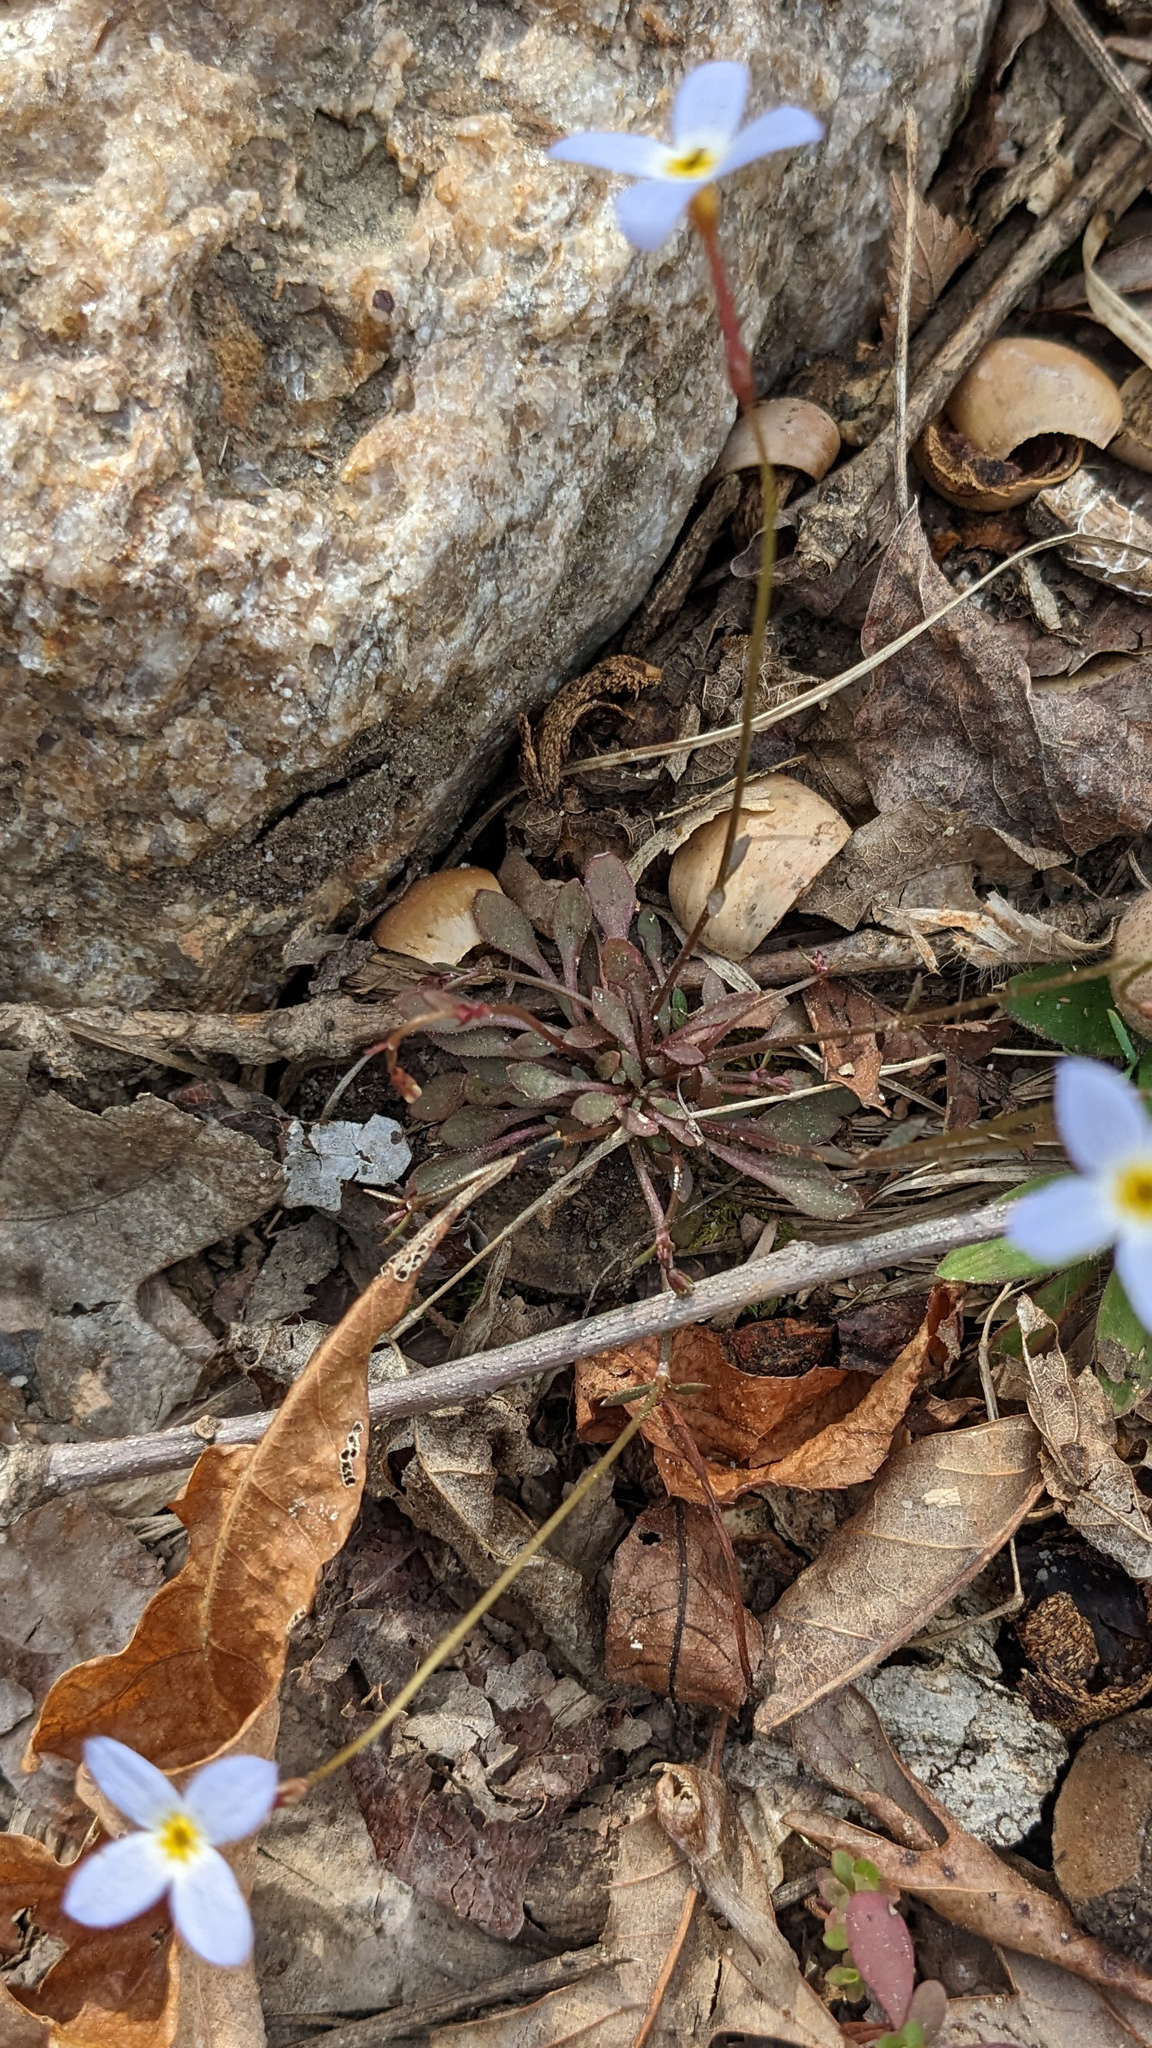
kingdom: Plantae
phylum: Tracheophyta
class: Magnoliopsida
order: Gentianales
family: Rubiaceae
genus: Houstonia
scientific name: Houstonia caerulea
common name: Bluets
